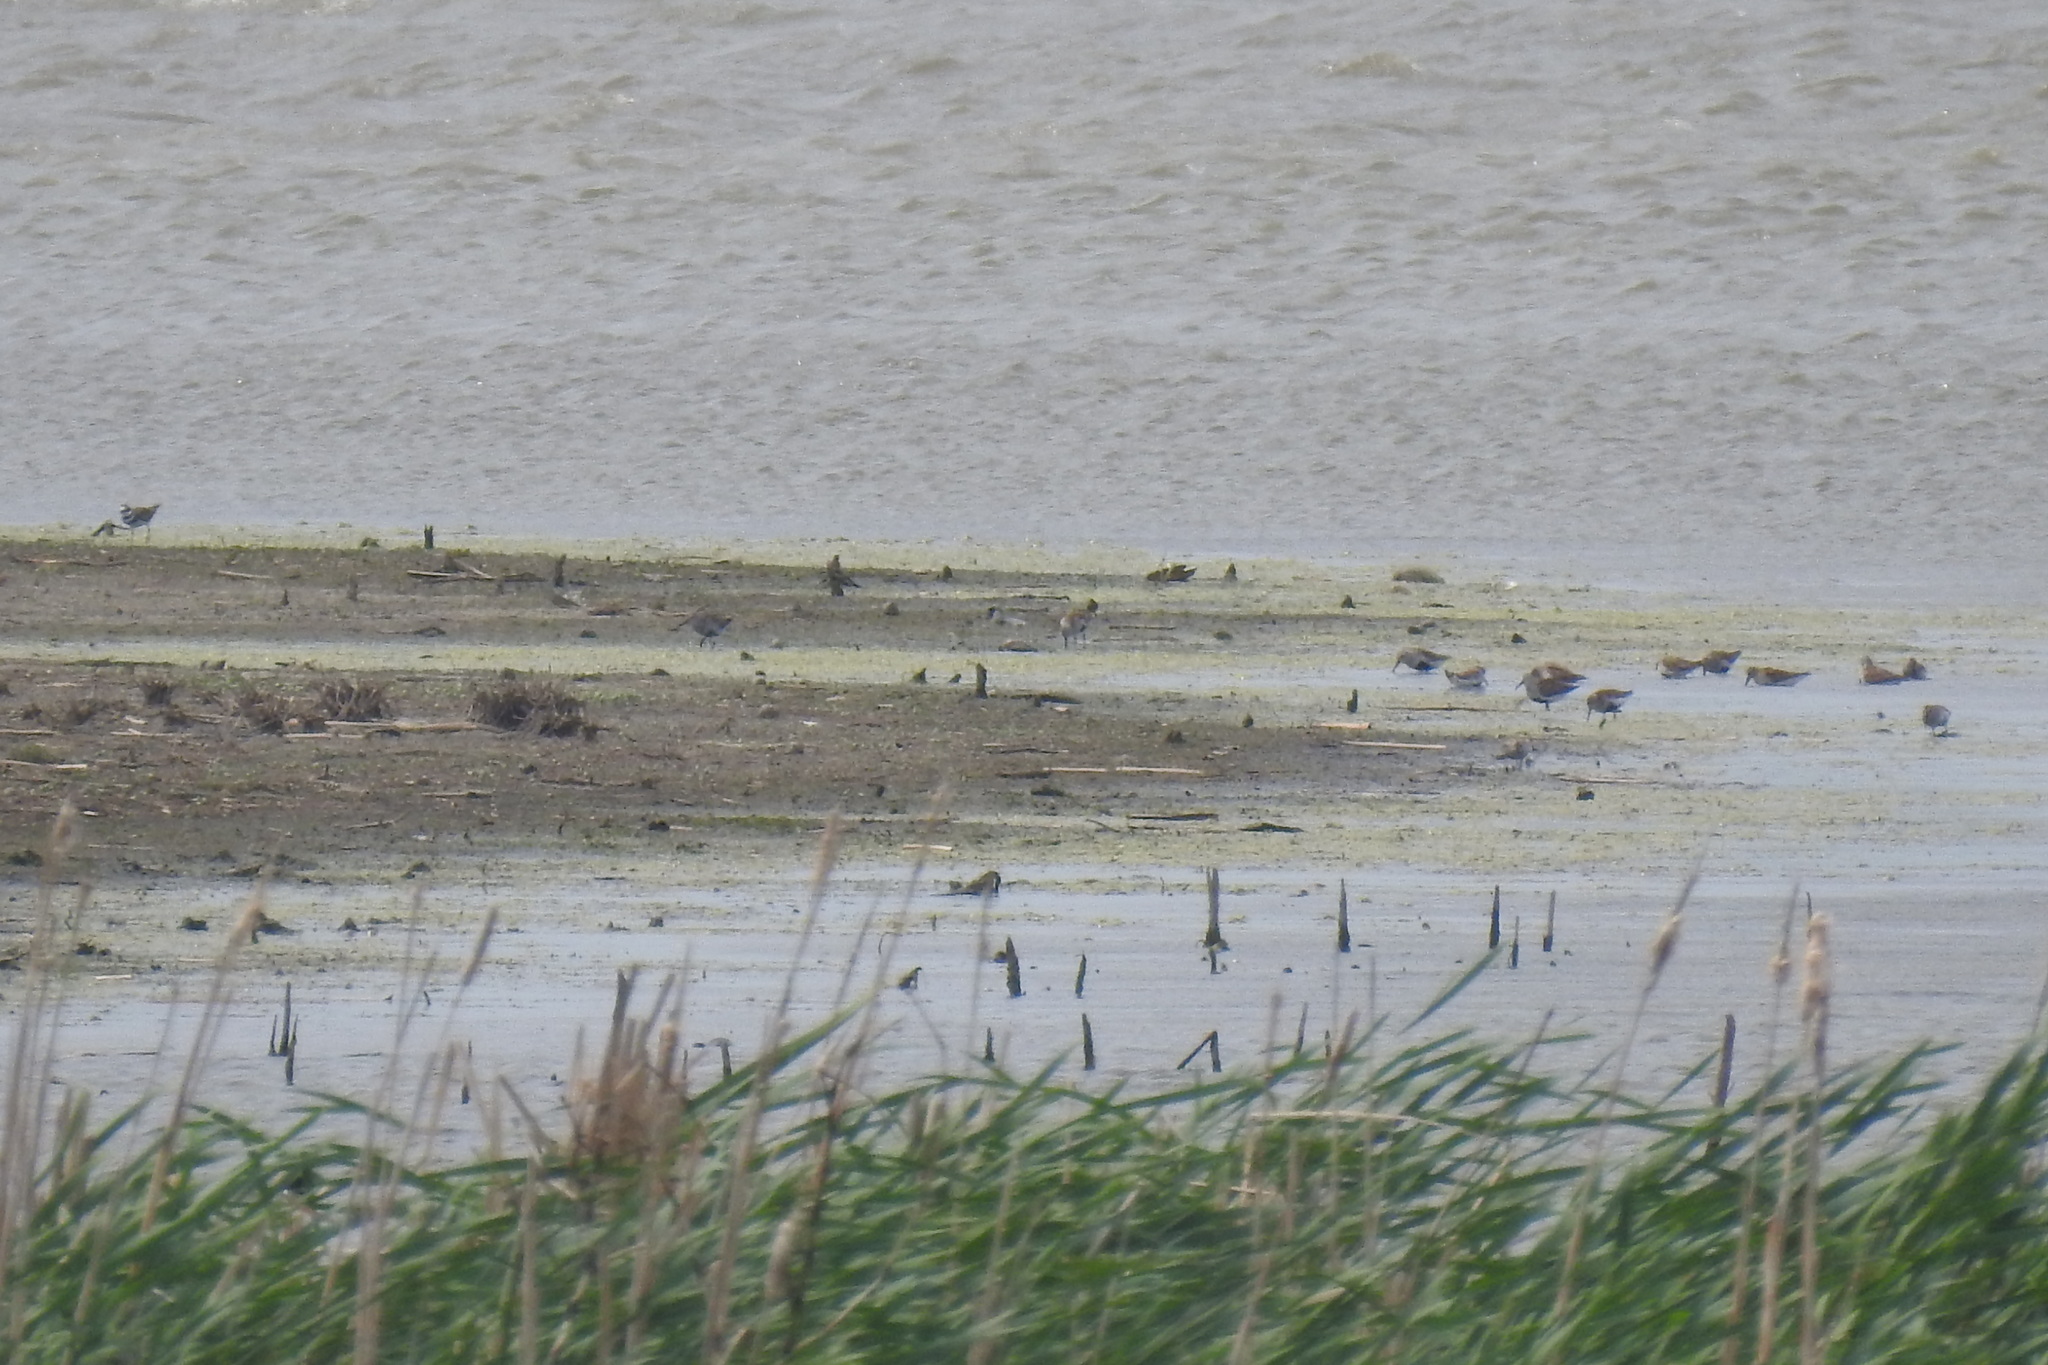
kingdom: Animalia
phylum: Chordata
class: Aves
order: Charadriiformes
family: Scolopacidae
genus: Calidris
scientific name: Calidris alpina
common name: Dunlin
